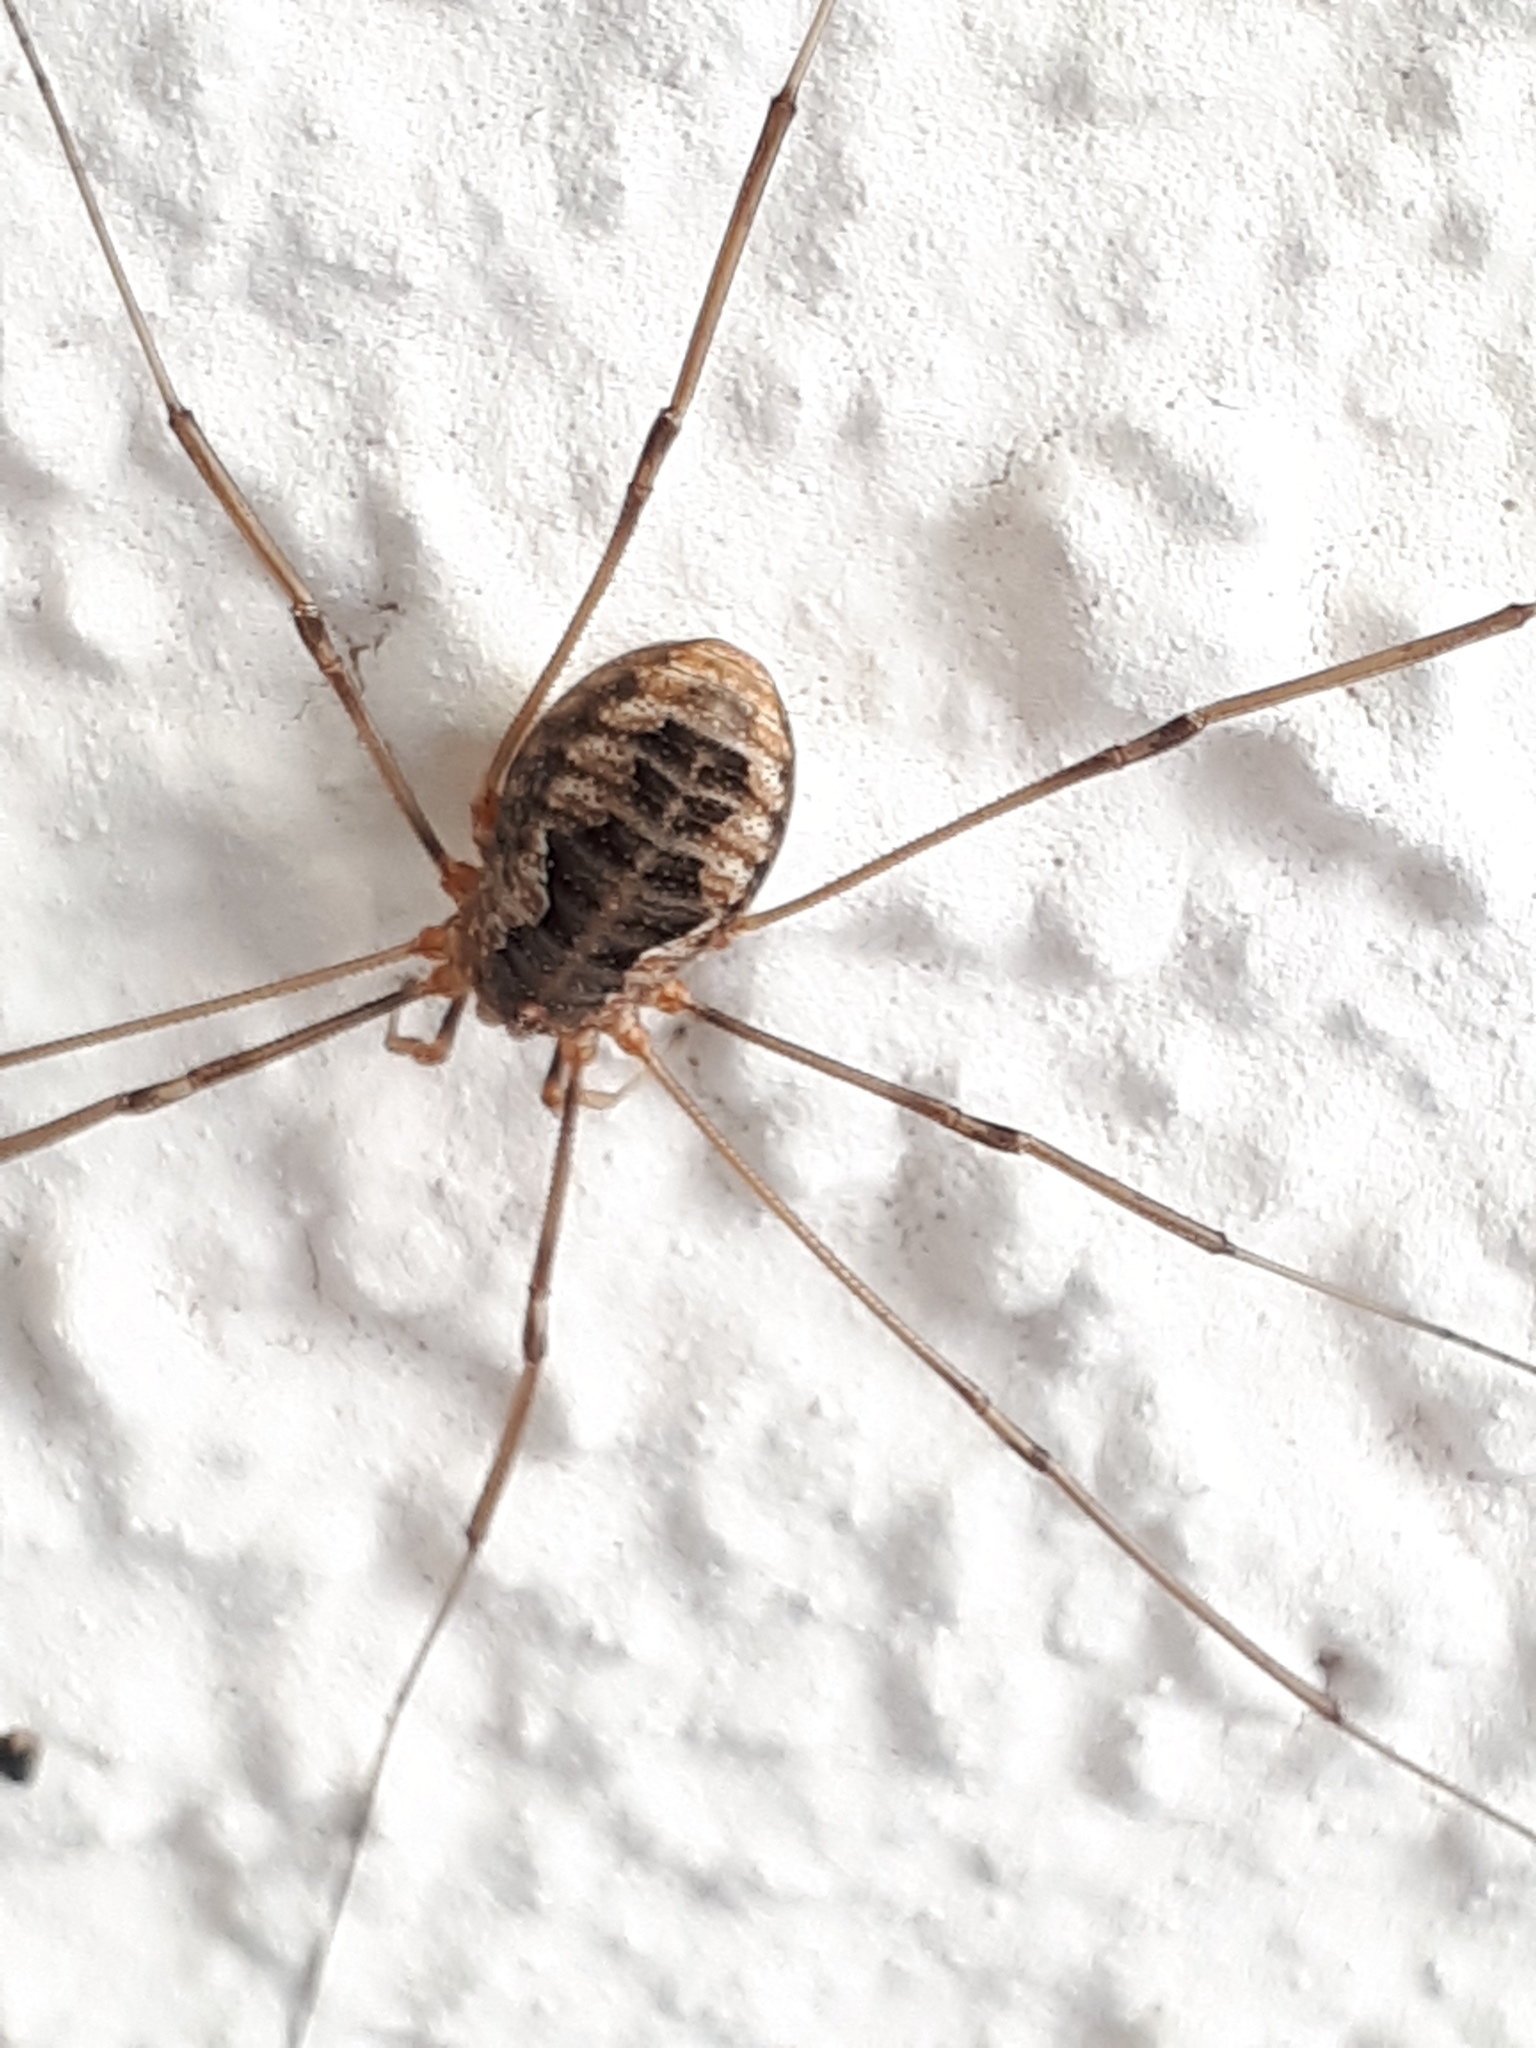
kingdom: Animalia
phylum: Arthropoda
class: Arachnida
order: Opiliones
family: Phalangiidae
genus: Phalangium
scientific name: Phalangium opilio
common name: Daddy longleg
